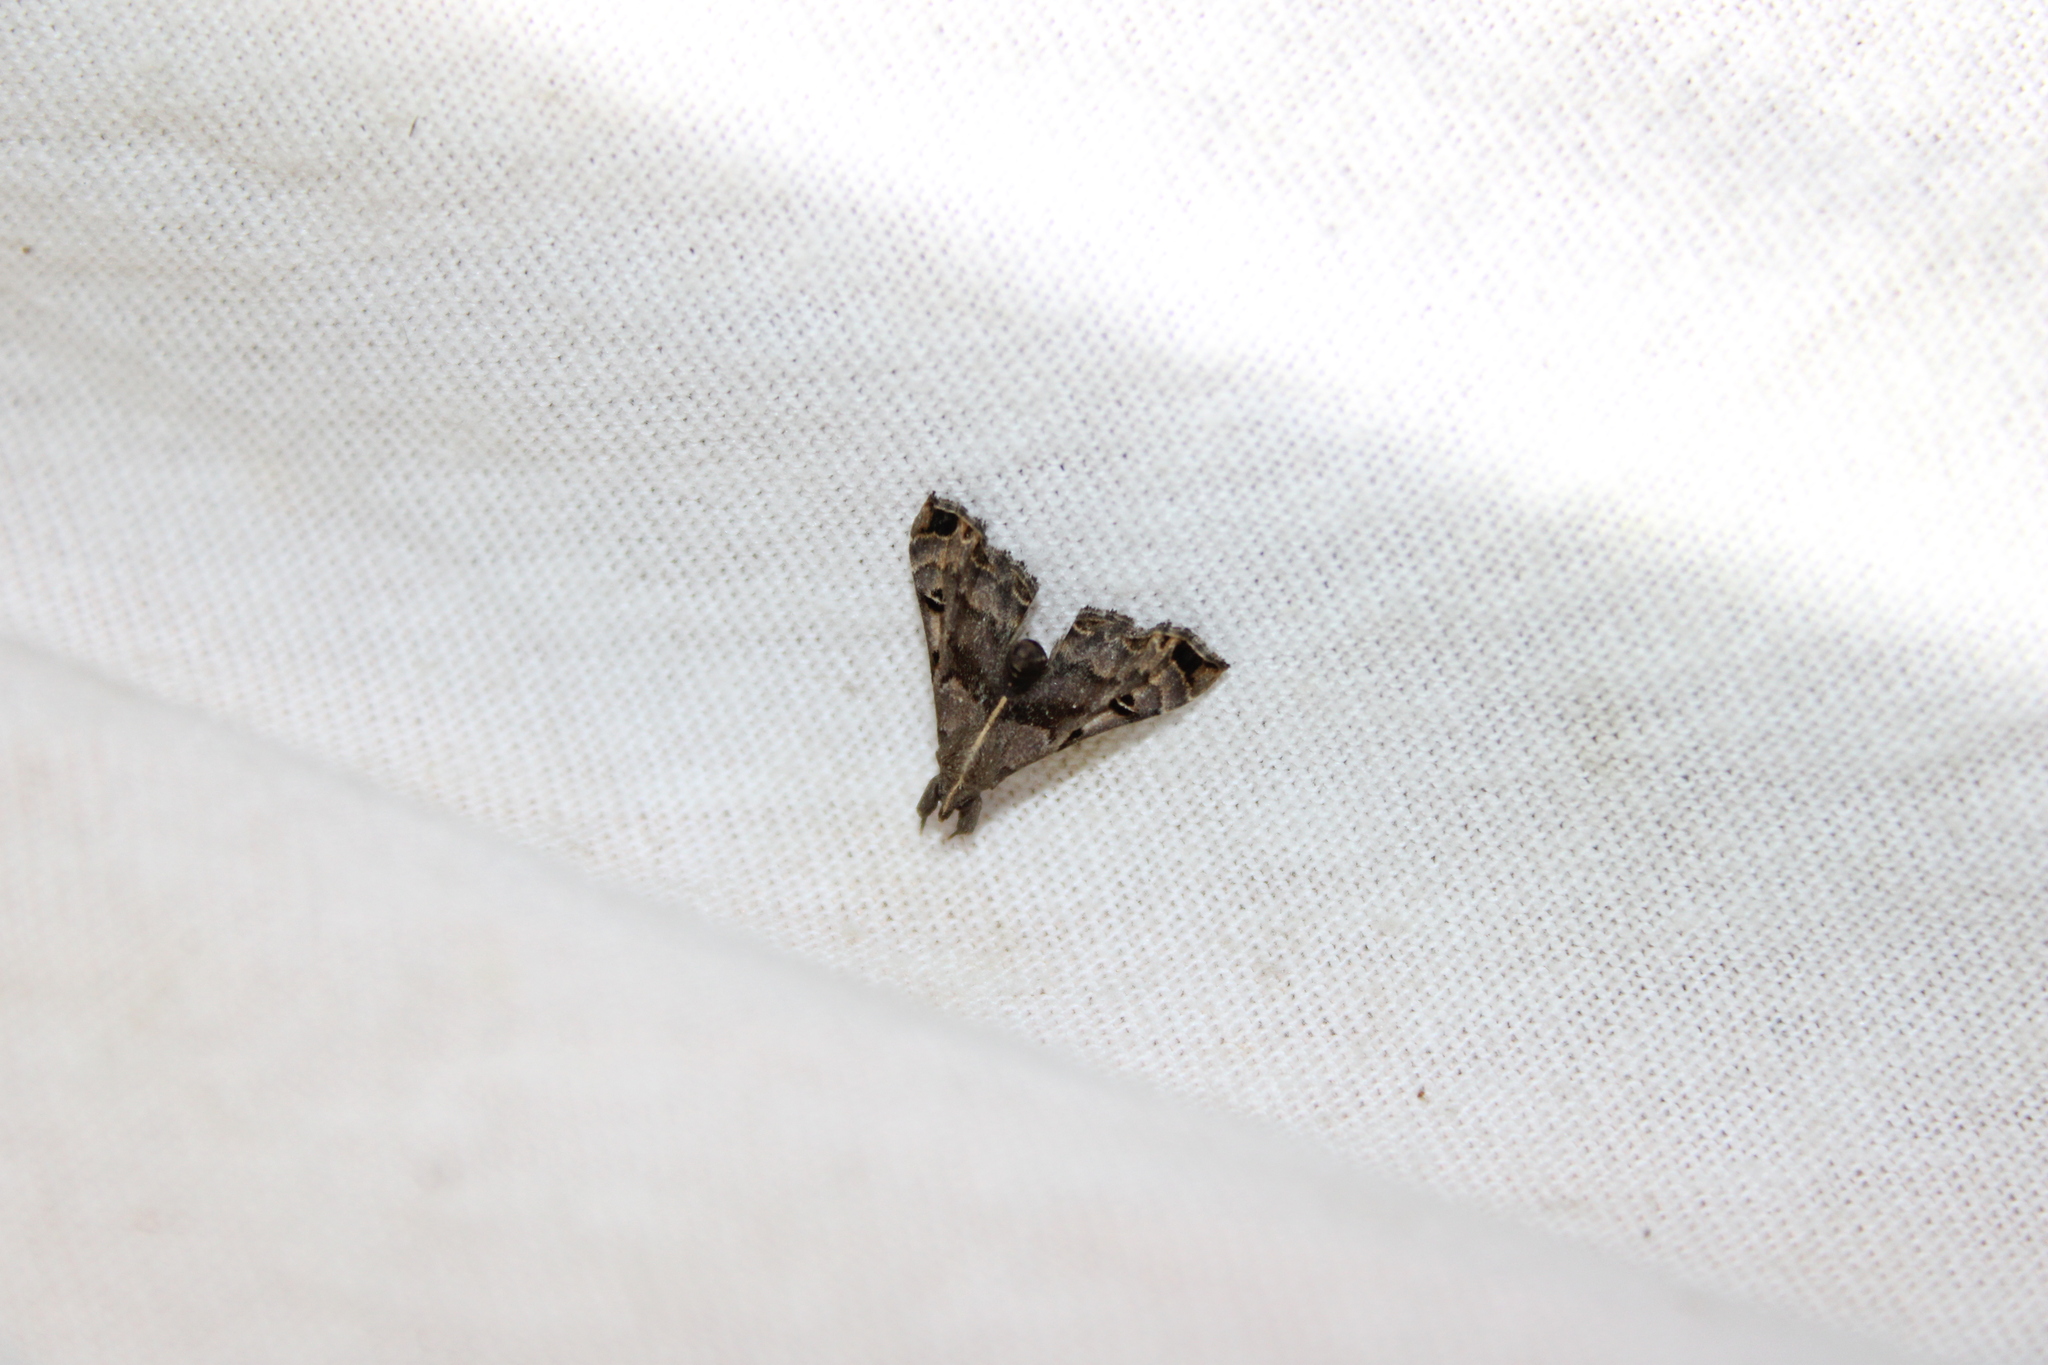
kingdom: Animalia
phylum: Arthropoda
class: Insecta
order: Lepidoptera
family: Erebidae
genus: Palthis
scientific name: Palthis asopialis
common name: Faint-spotted palthis moth
